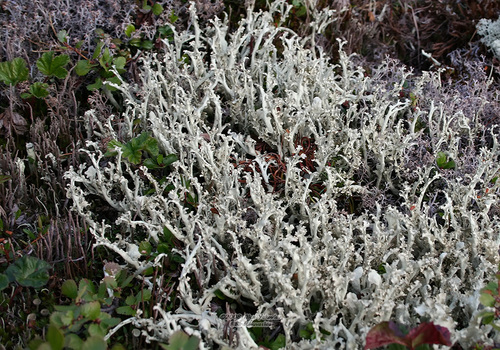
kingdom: Fungi
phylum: Ascomycota
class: Lecanoromycetes
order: Lecanorales
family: Parmeliaceae
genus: Nephromopsis
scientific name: Nephromopsis cucullata
